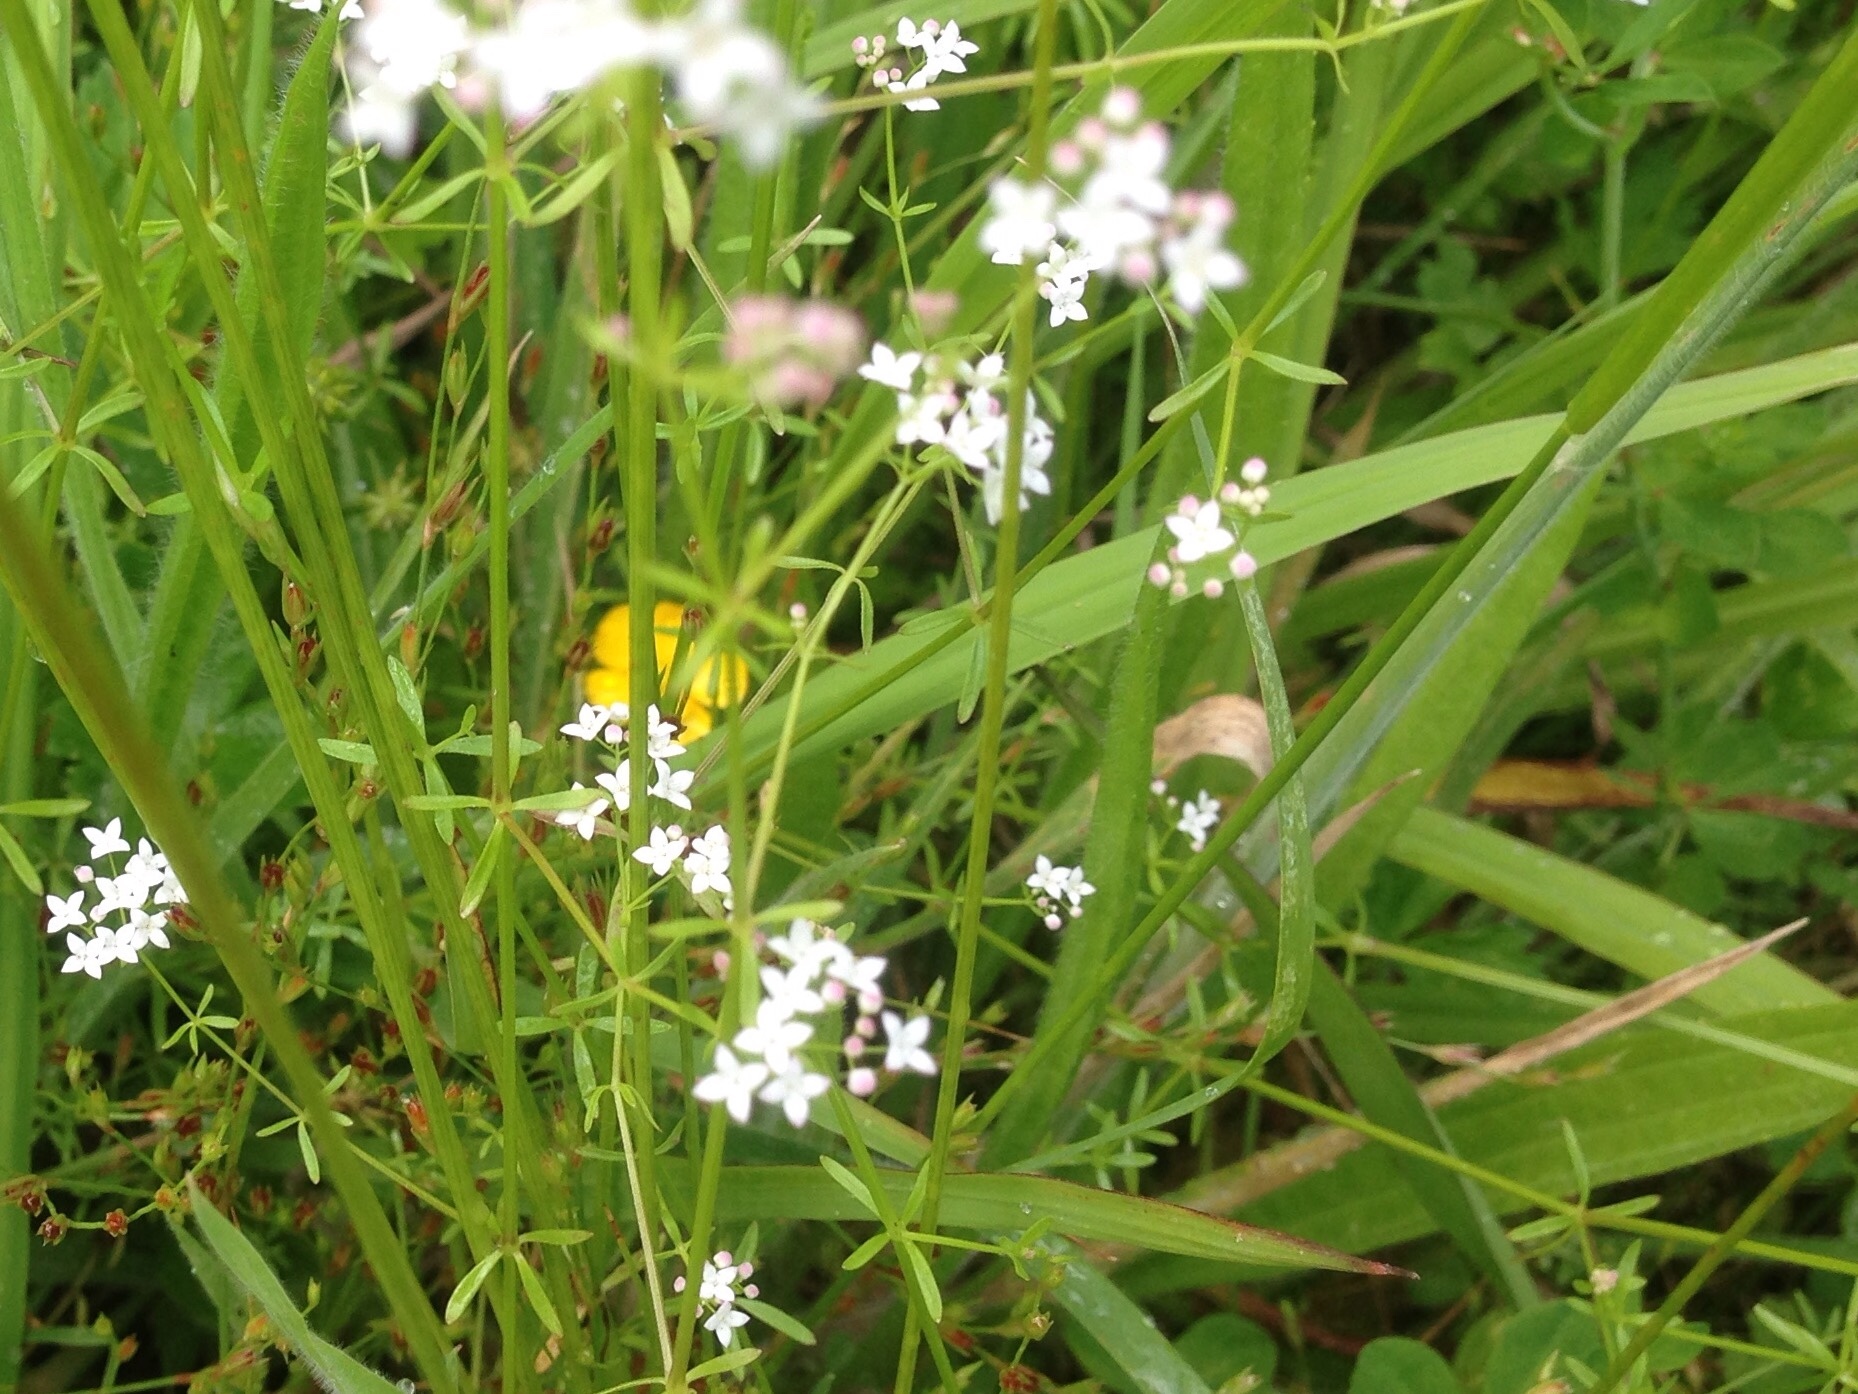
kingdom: Plantae
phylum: Tracheophyta
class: Magnoliopsida
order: Gentianales
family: Rubiaceae
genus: Galium
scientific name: Galium palustre
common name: Common marsh-bedstraw
